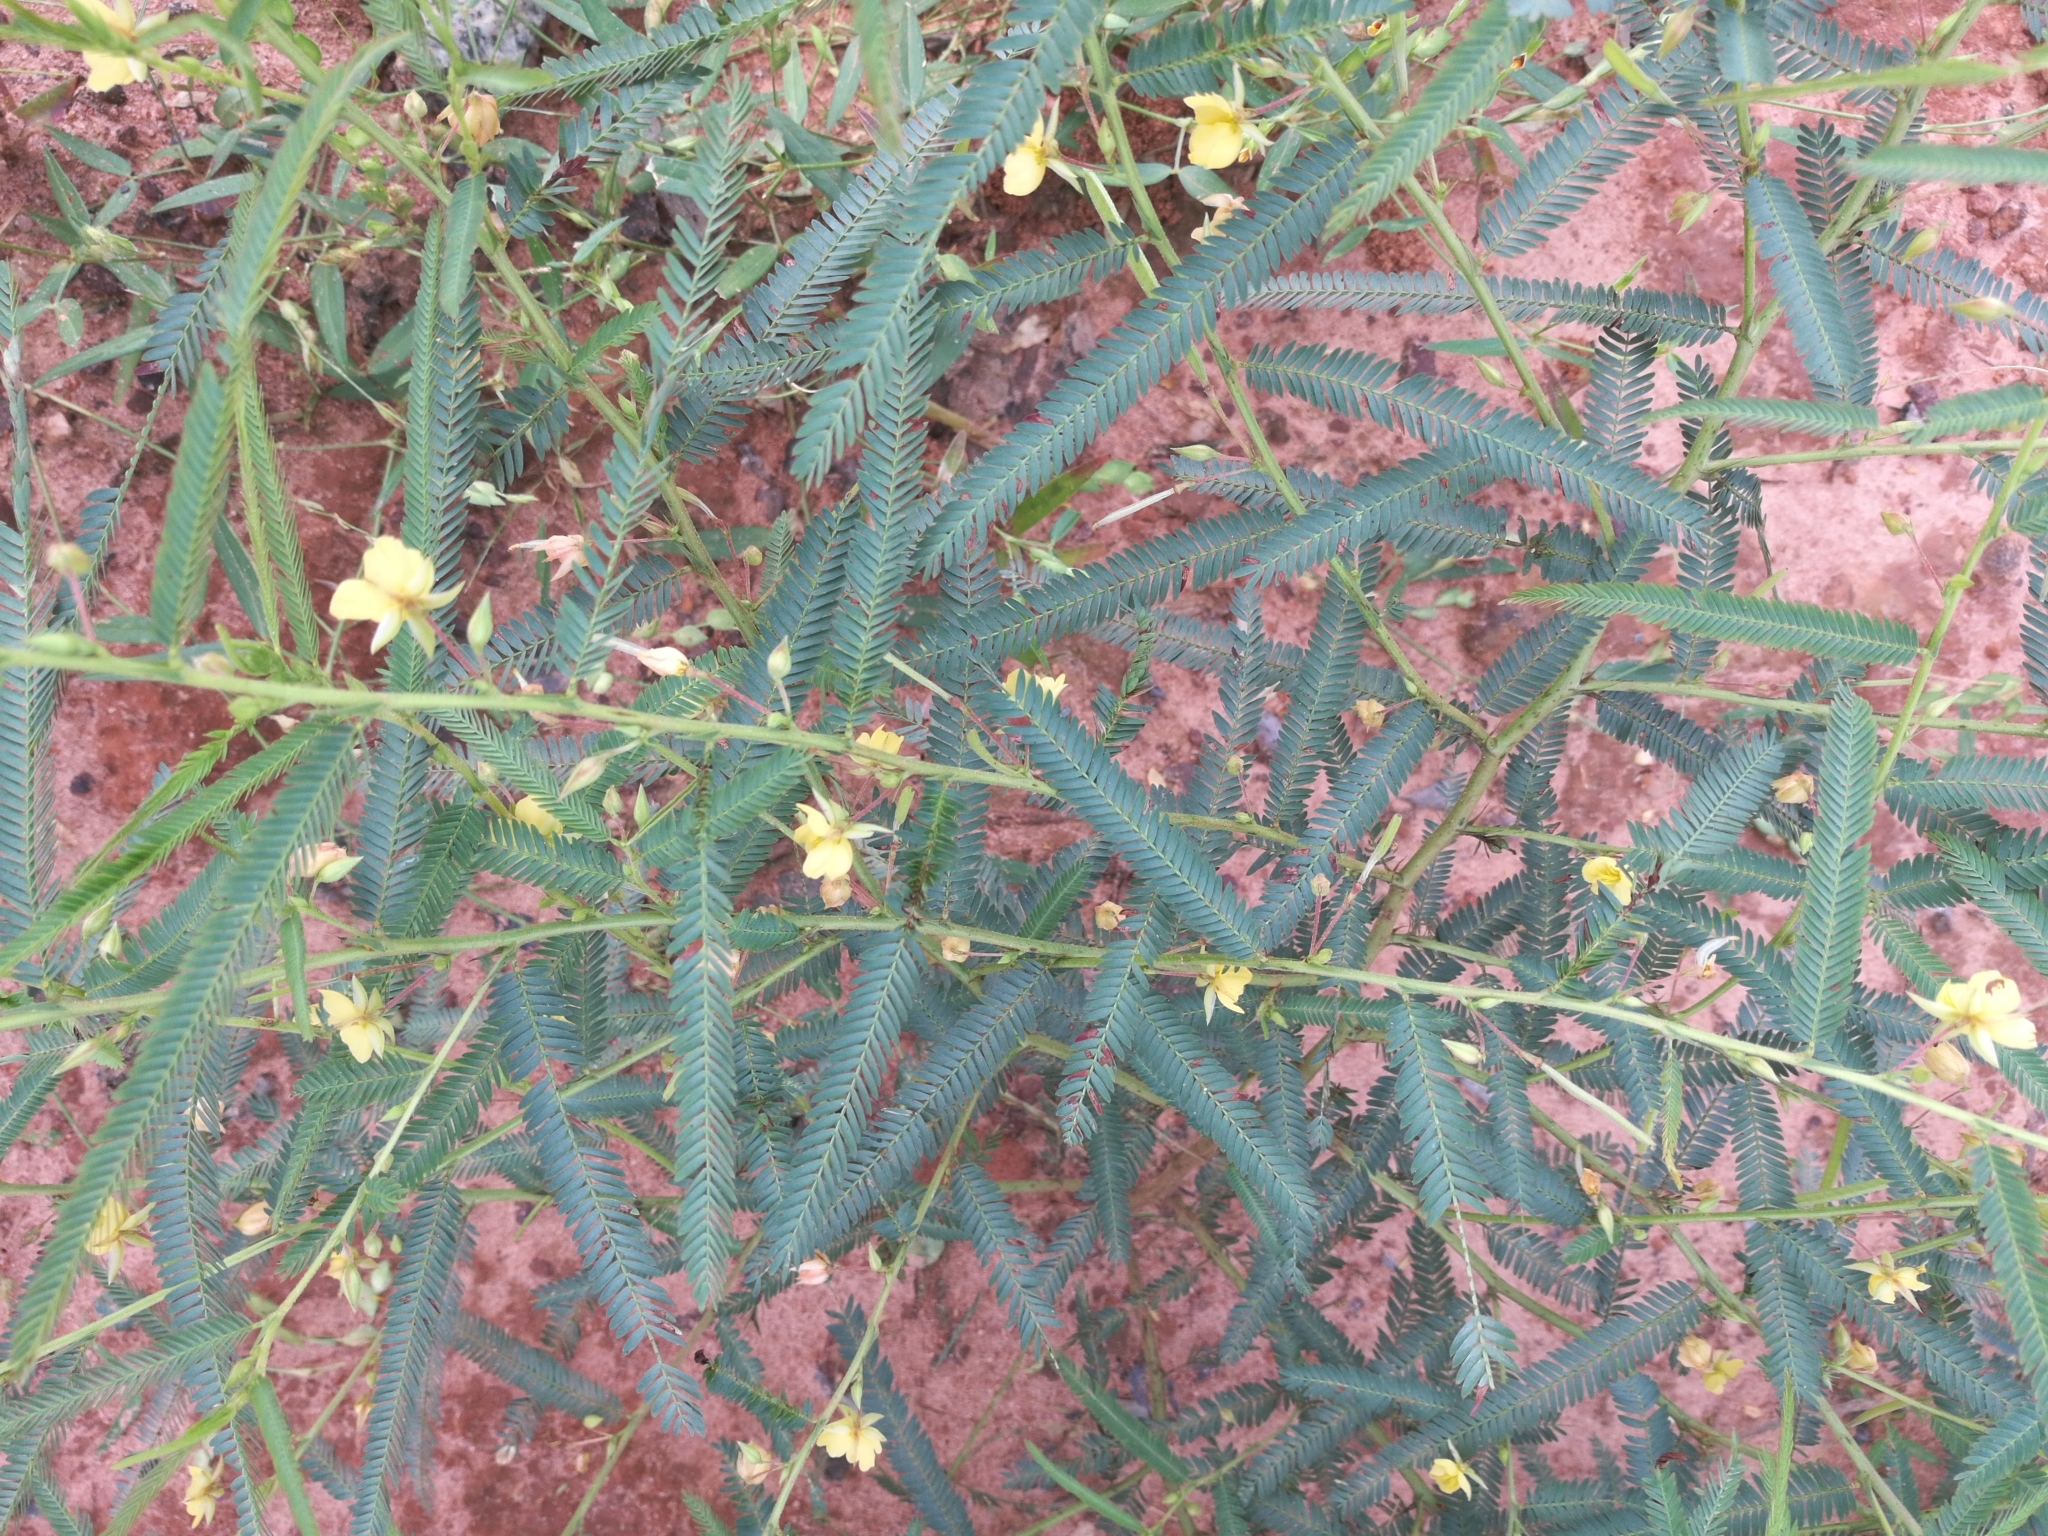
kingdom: Plantae
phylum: Tracheophyta
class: Magnoliopsida
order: Fabales
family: Fabaceae
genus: Chamaecrista
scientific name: Chamaecrista mimosoides
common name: Fish-bone cassia
